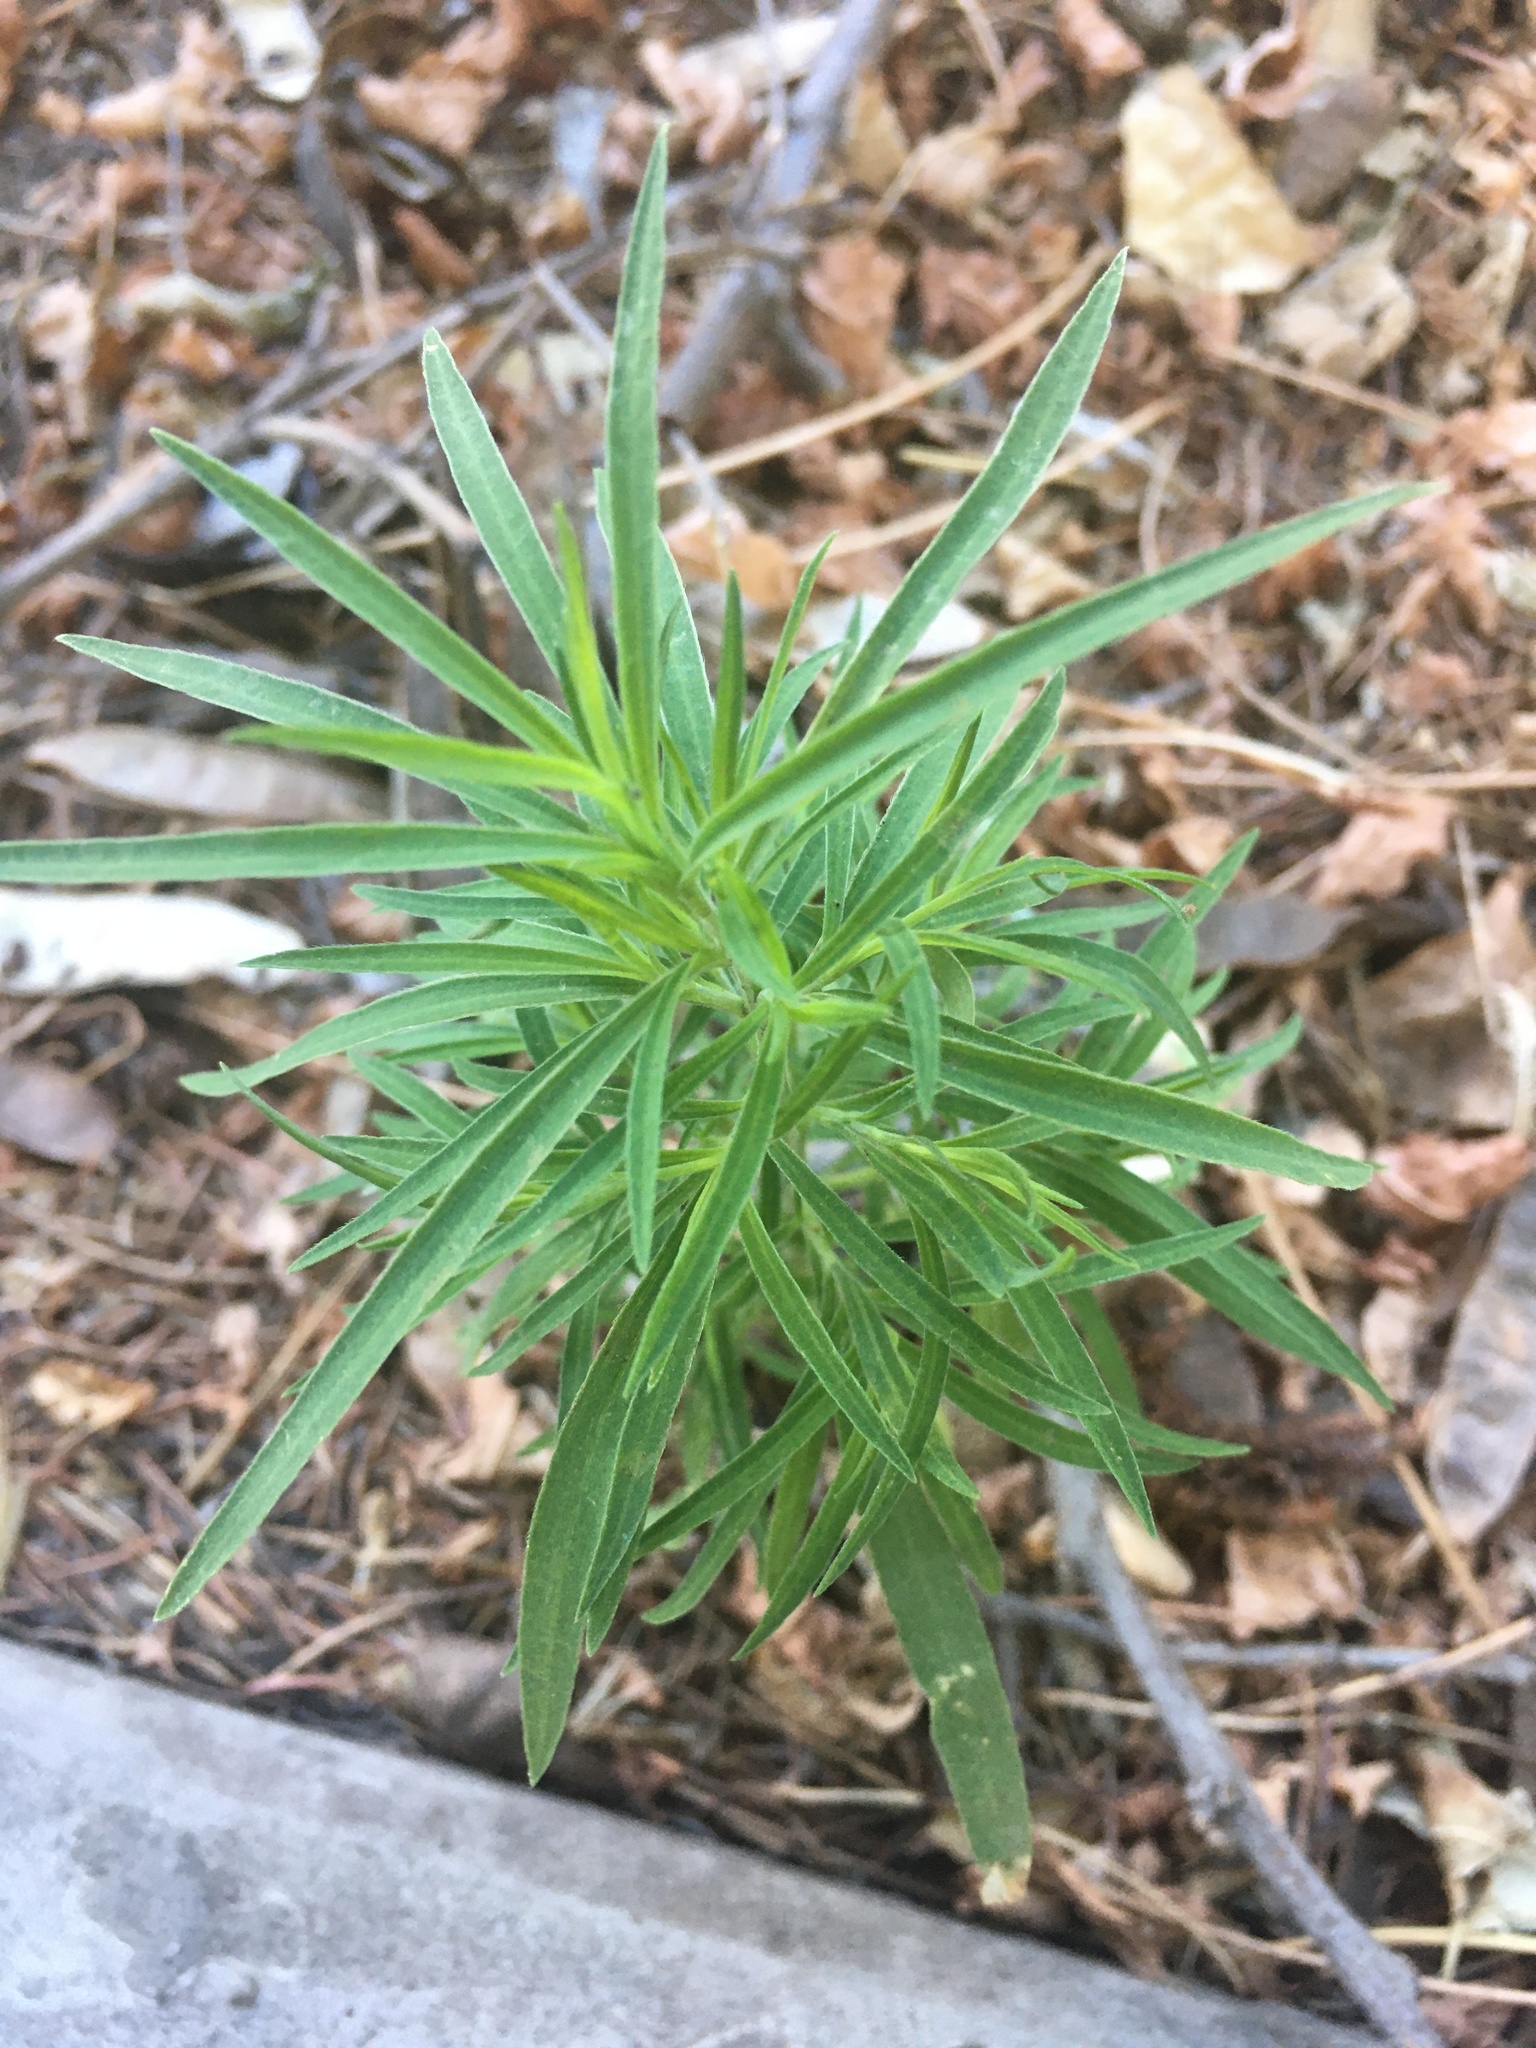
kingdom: Plantae
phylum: Tracheophyta
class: Magnoliopsida
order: Caryophyllales
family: Amaranthaceae
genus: Bassia
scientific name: Bassia scoparia
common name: Belvedere
